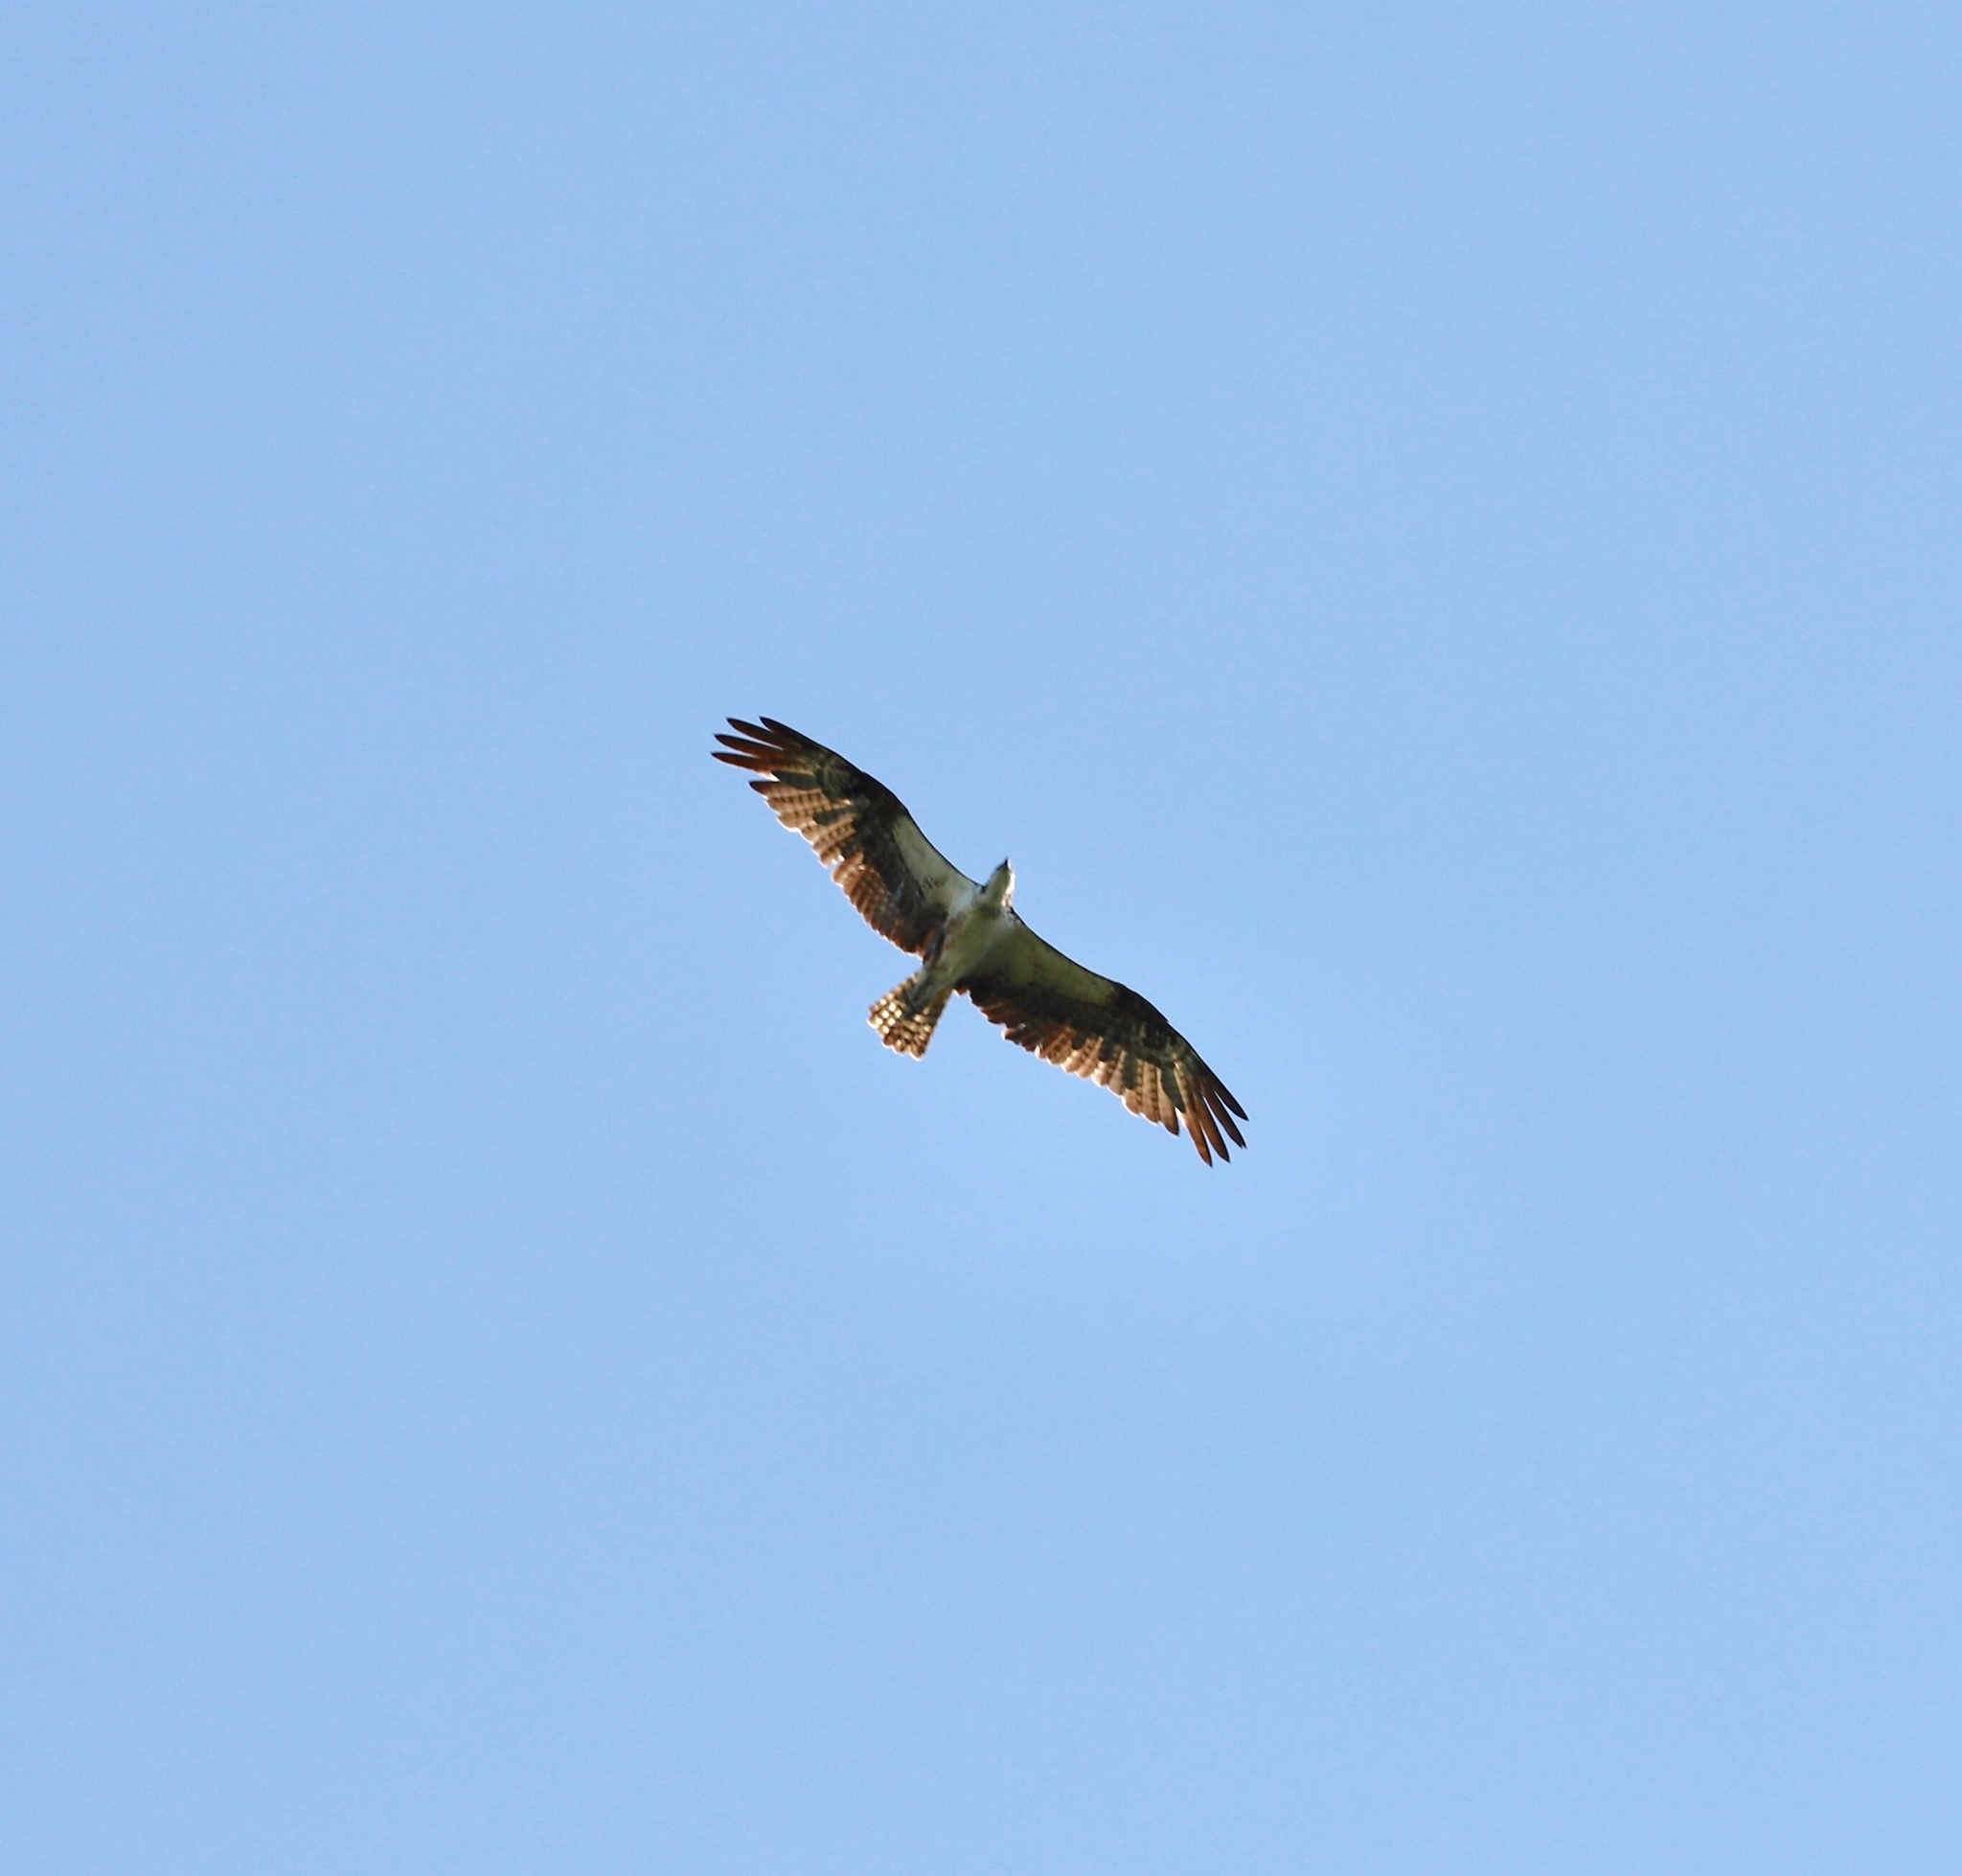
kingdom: Animalia
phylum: Chordata
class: Aves
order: Accipitriformes
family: Pandionidae
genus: Pandion
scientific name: Pandion haliaetus
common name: Osprey
